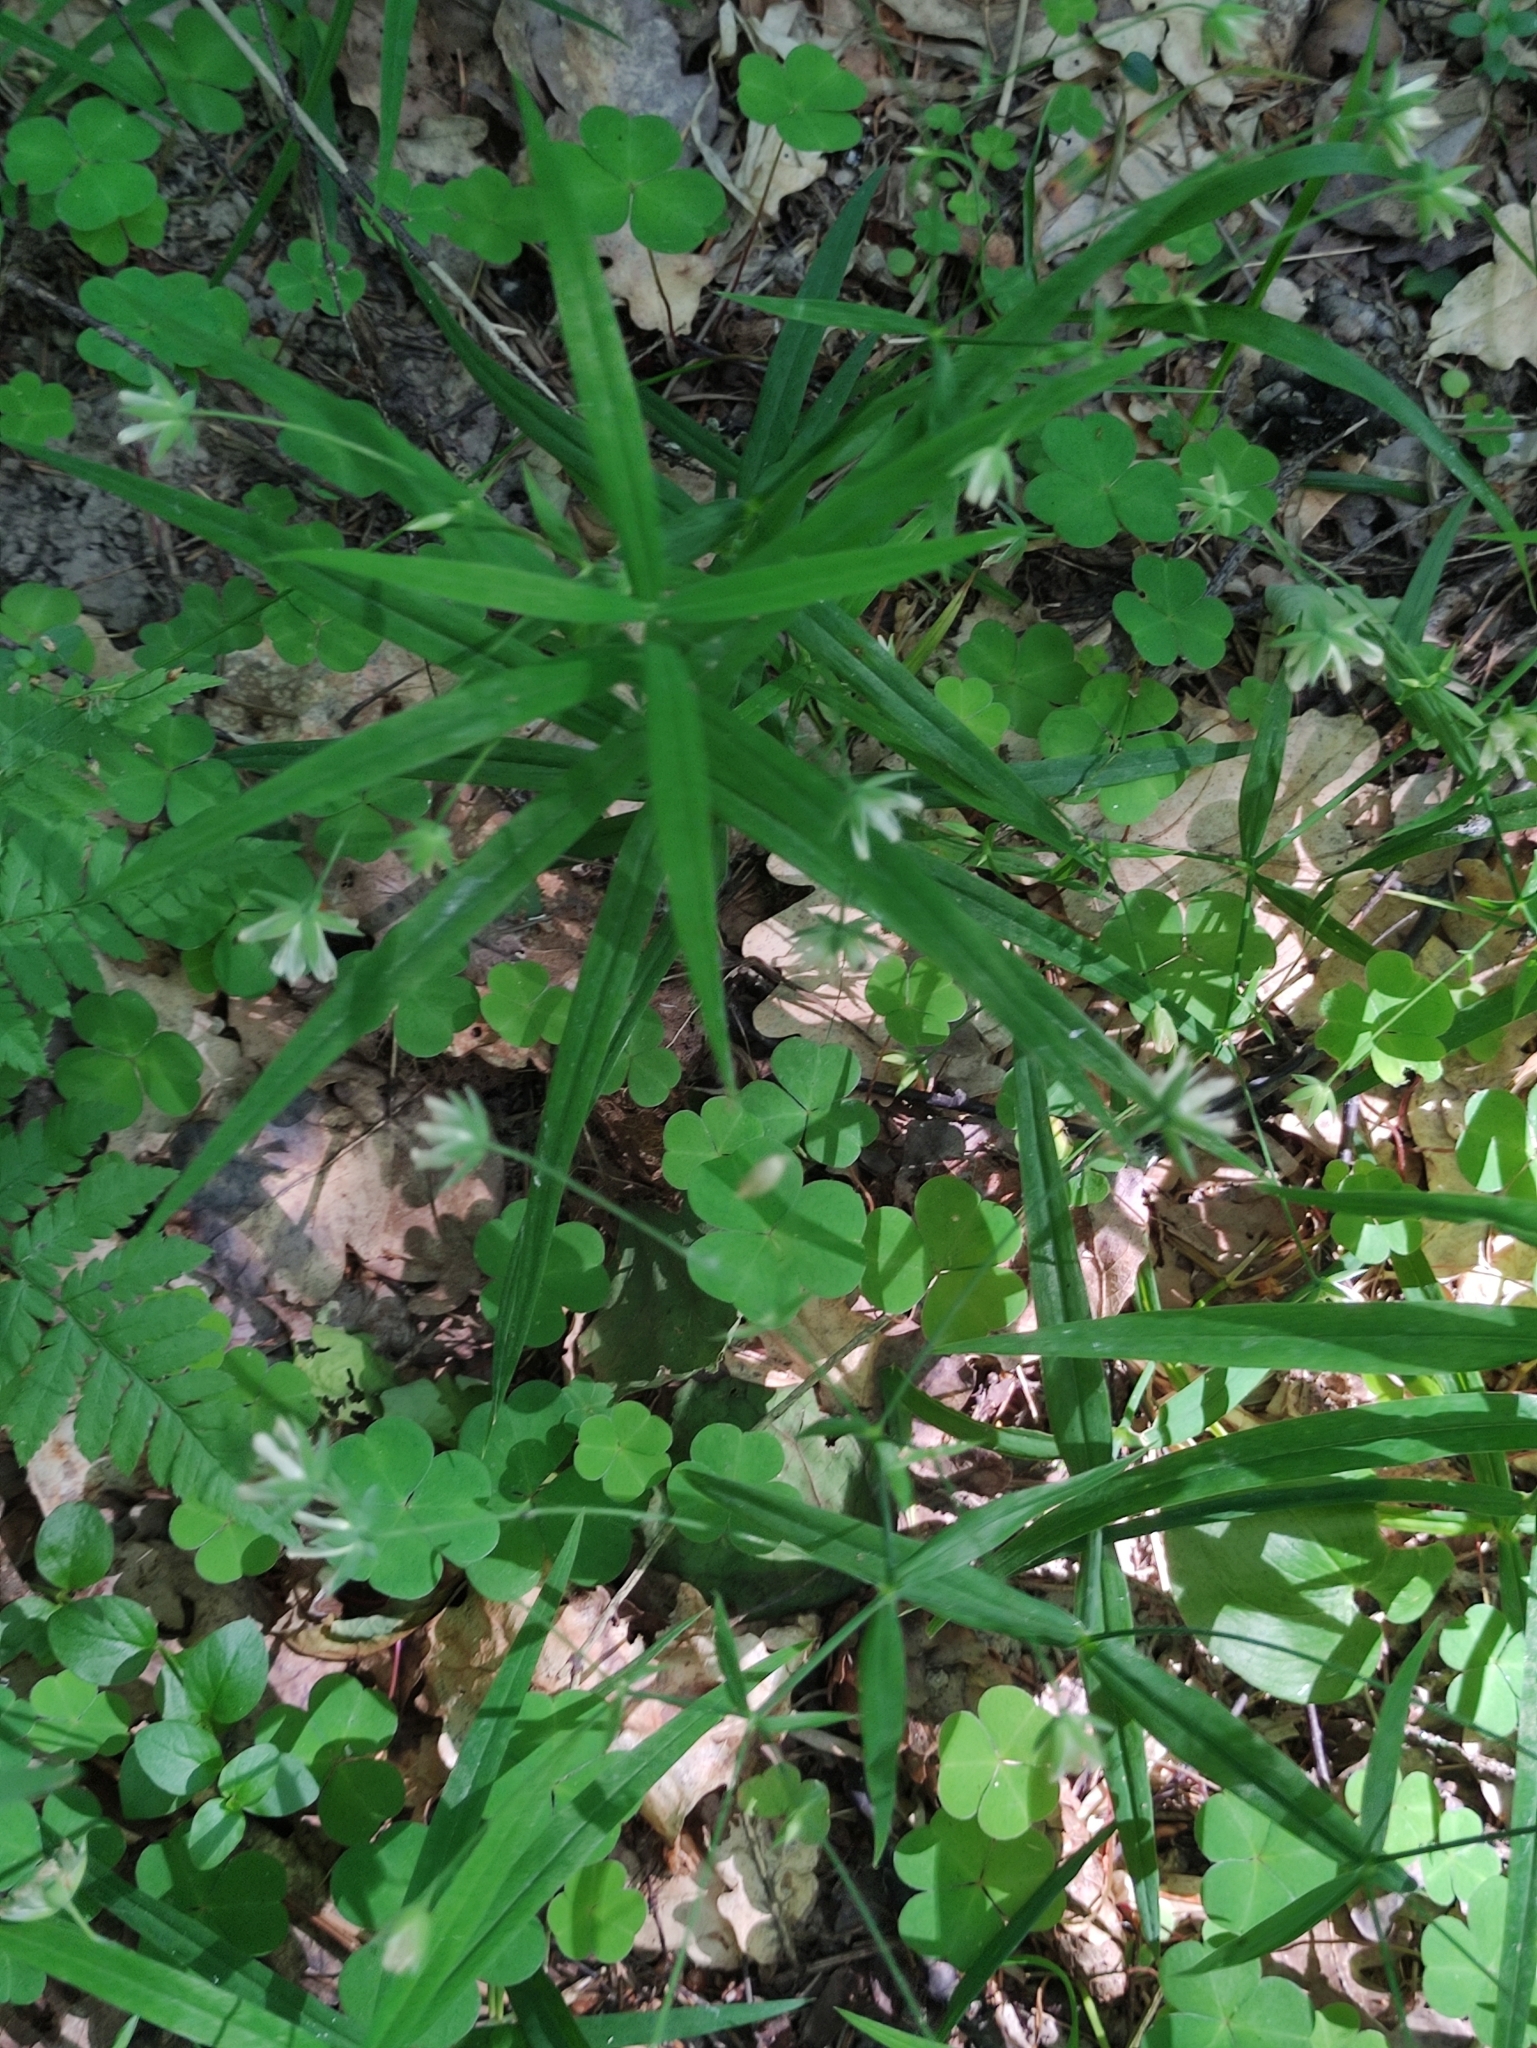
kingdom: Plantae
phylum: Tracheophyta
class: Magnoliopsida
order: Caryophyllales
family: Caryophyllaceae
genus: Rabelera
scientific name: Rabelera holostea
